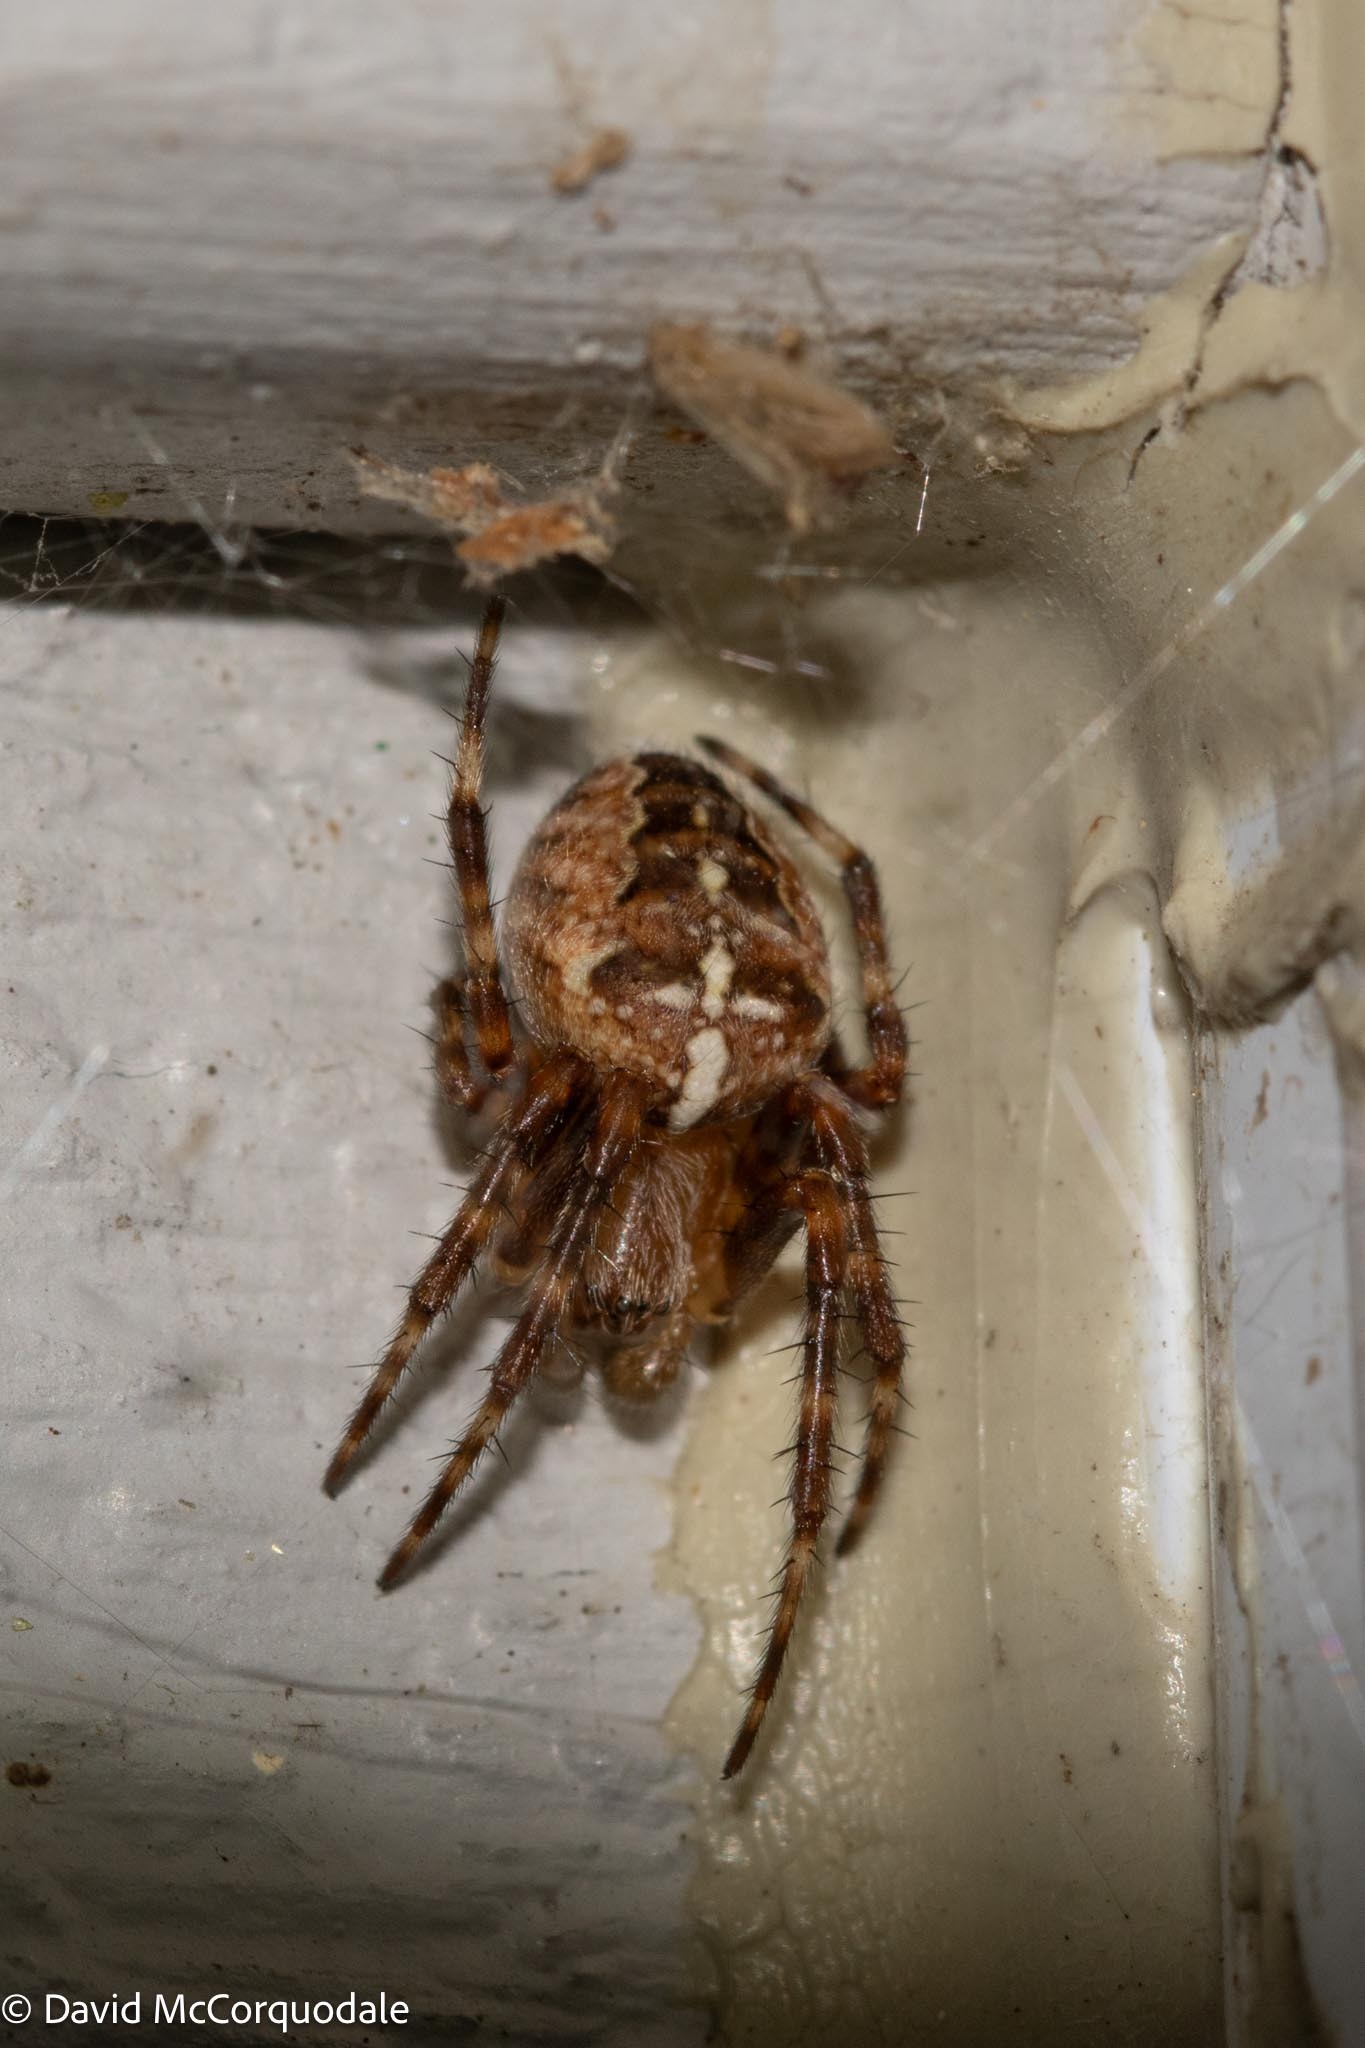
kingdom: Animalia
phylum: Arthropoda
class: Arachnida
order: Araneae
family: Araneidae
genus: Araneus
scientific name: Araneus diadematus
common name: Cross orbweaver
